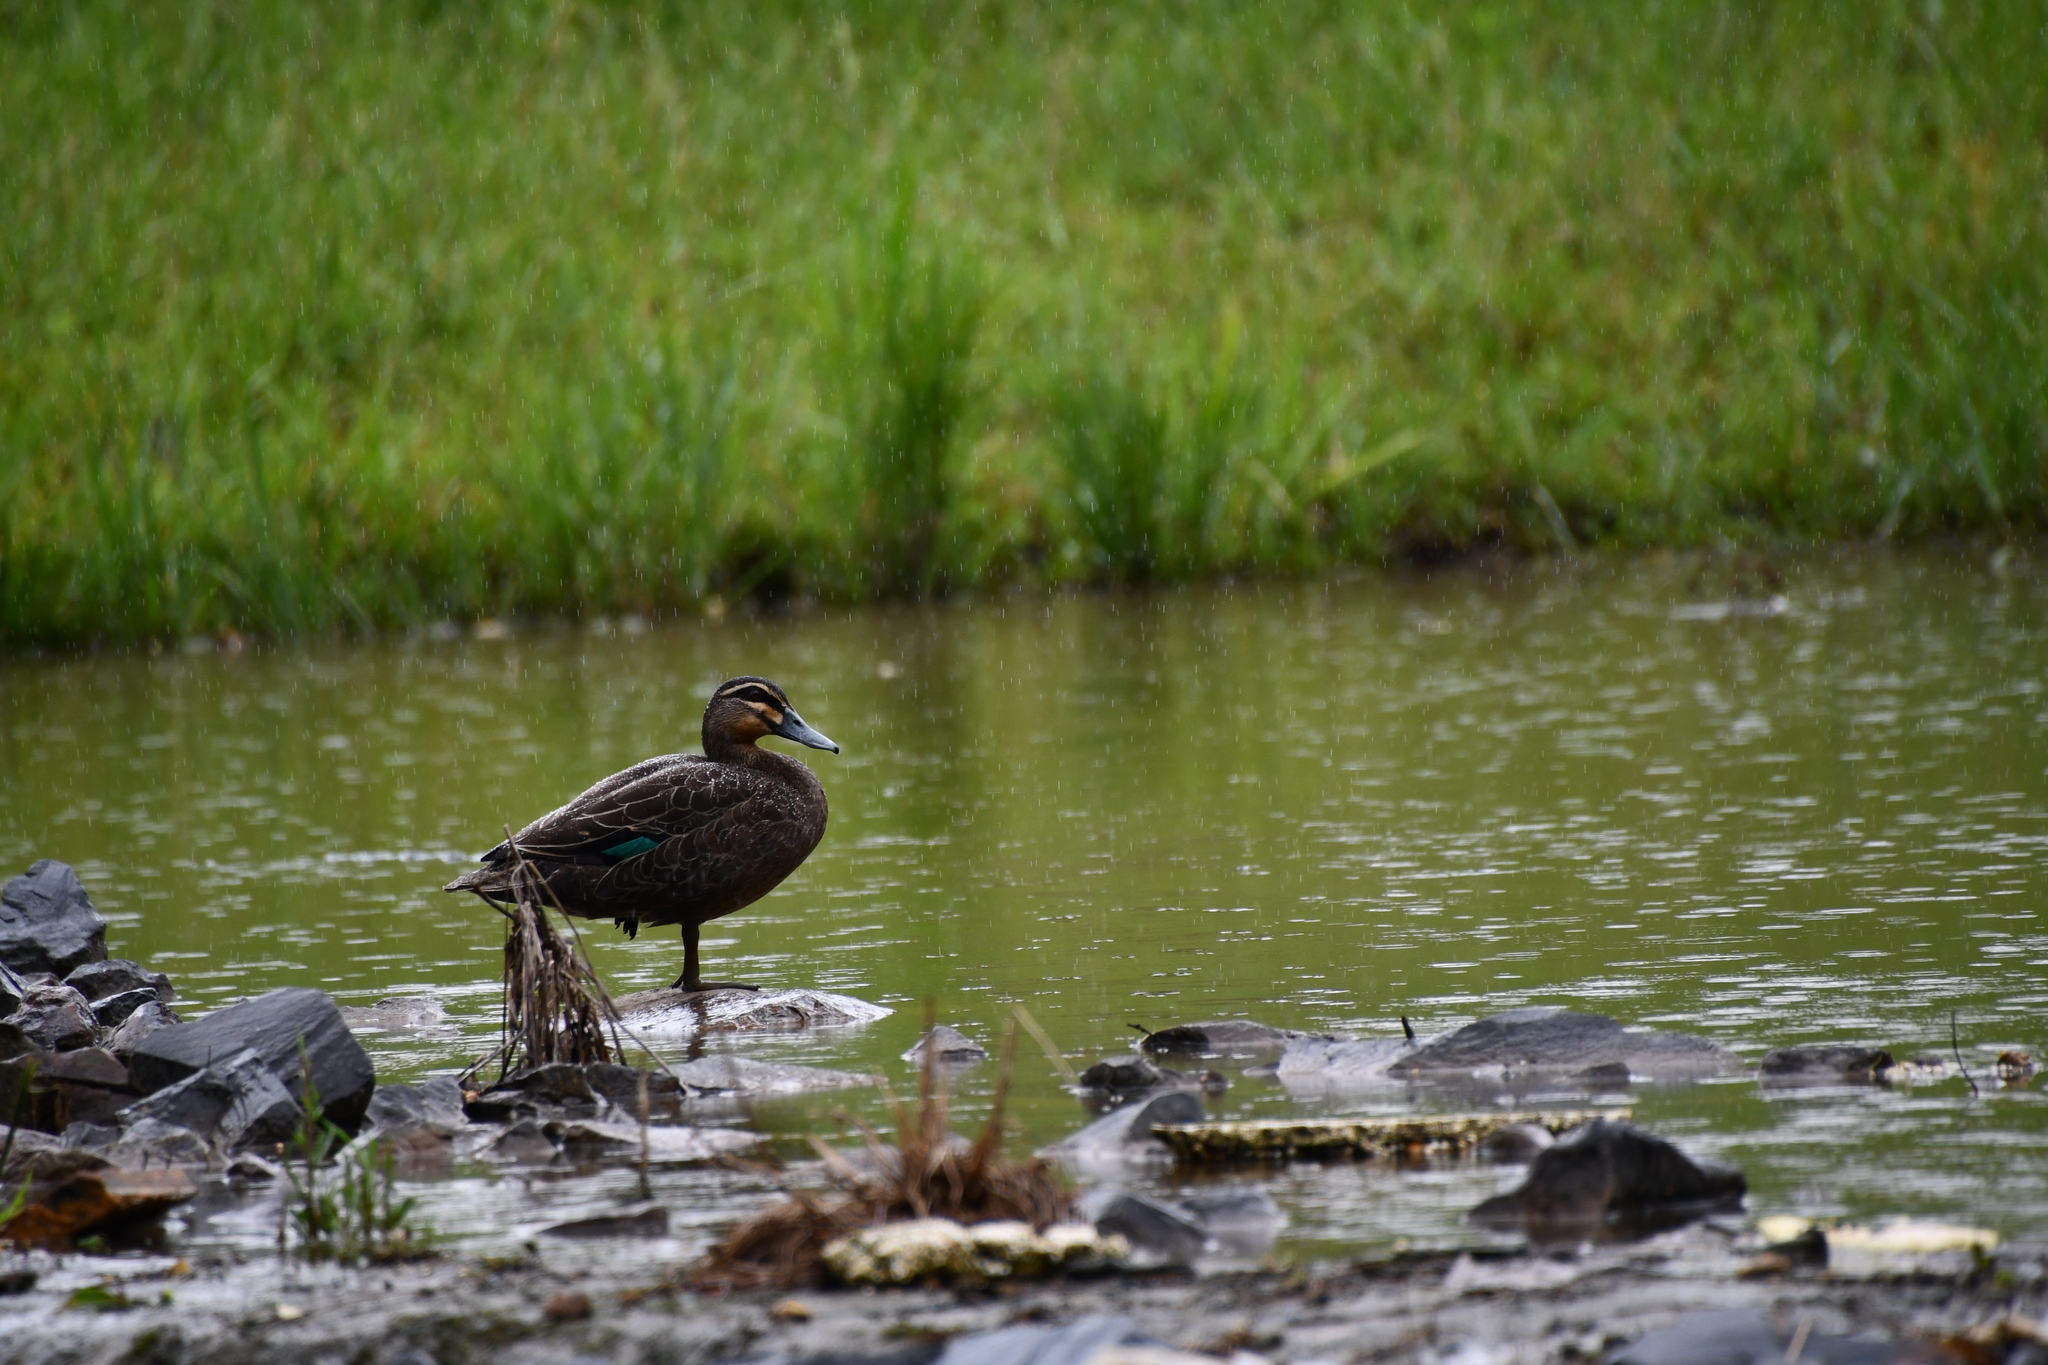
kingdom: Animalia
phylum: Chordata
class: Aves
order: Anseriformes
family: Anatidae
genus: Anas
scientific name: Anas superciliosa
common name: Pacific black duck
